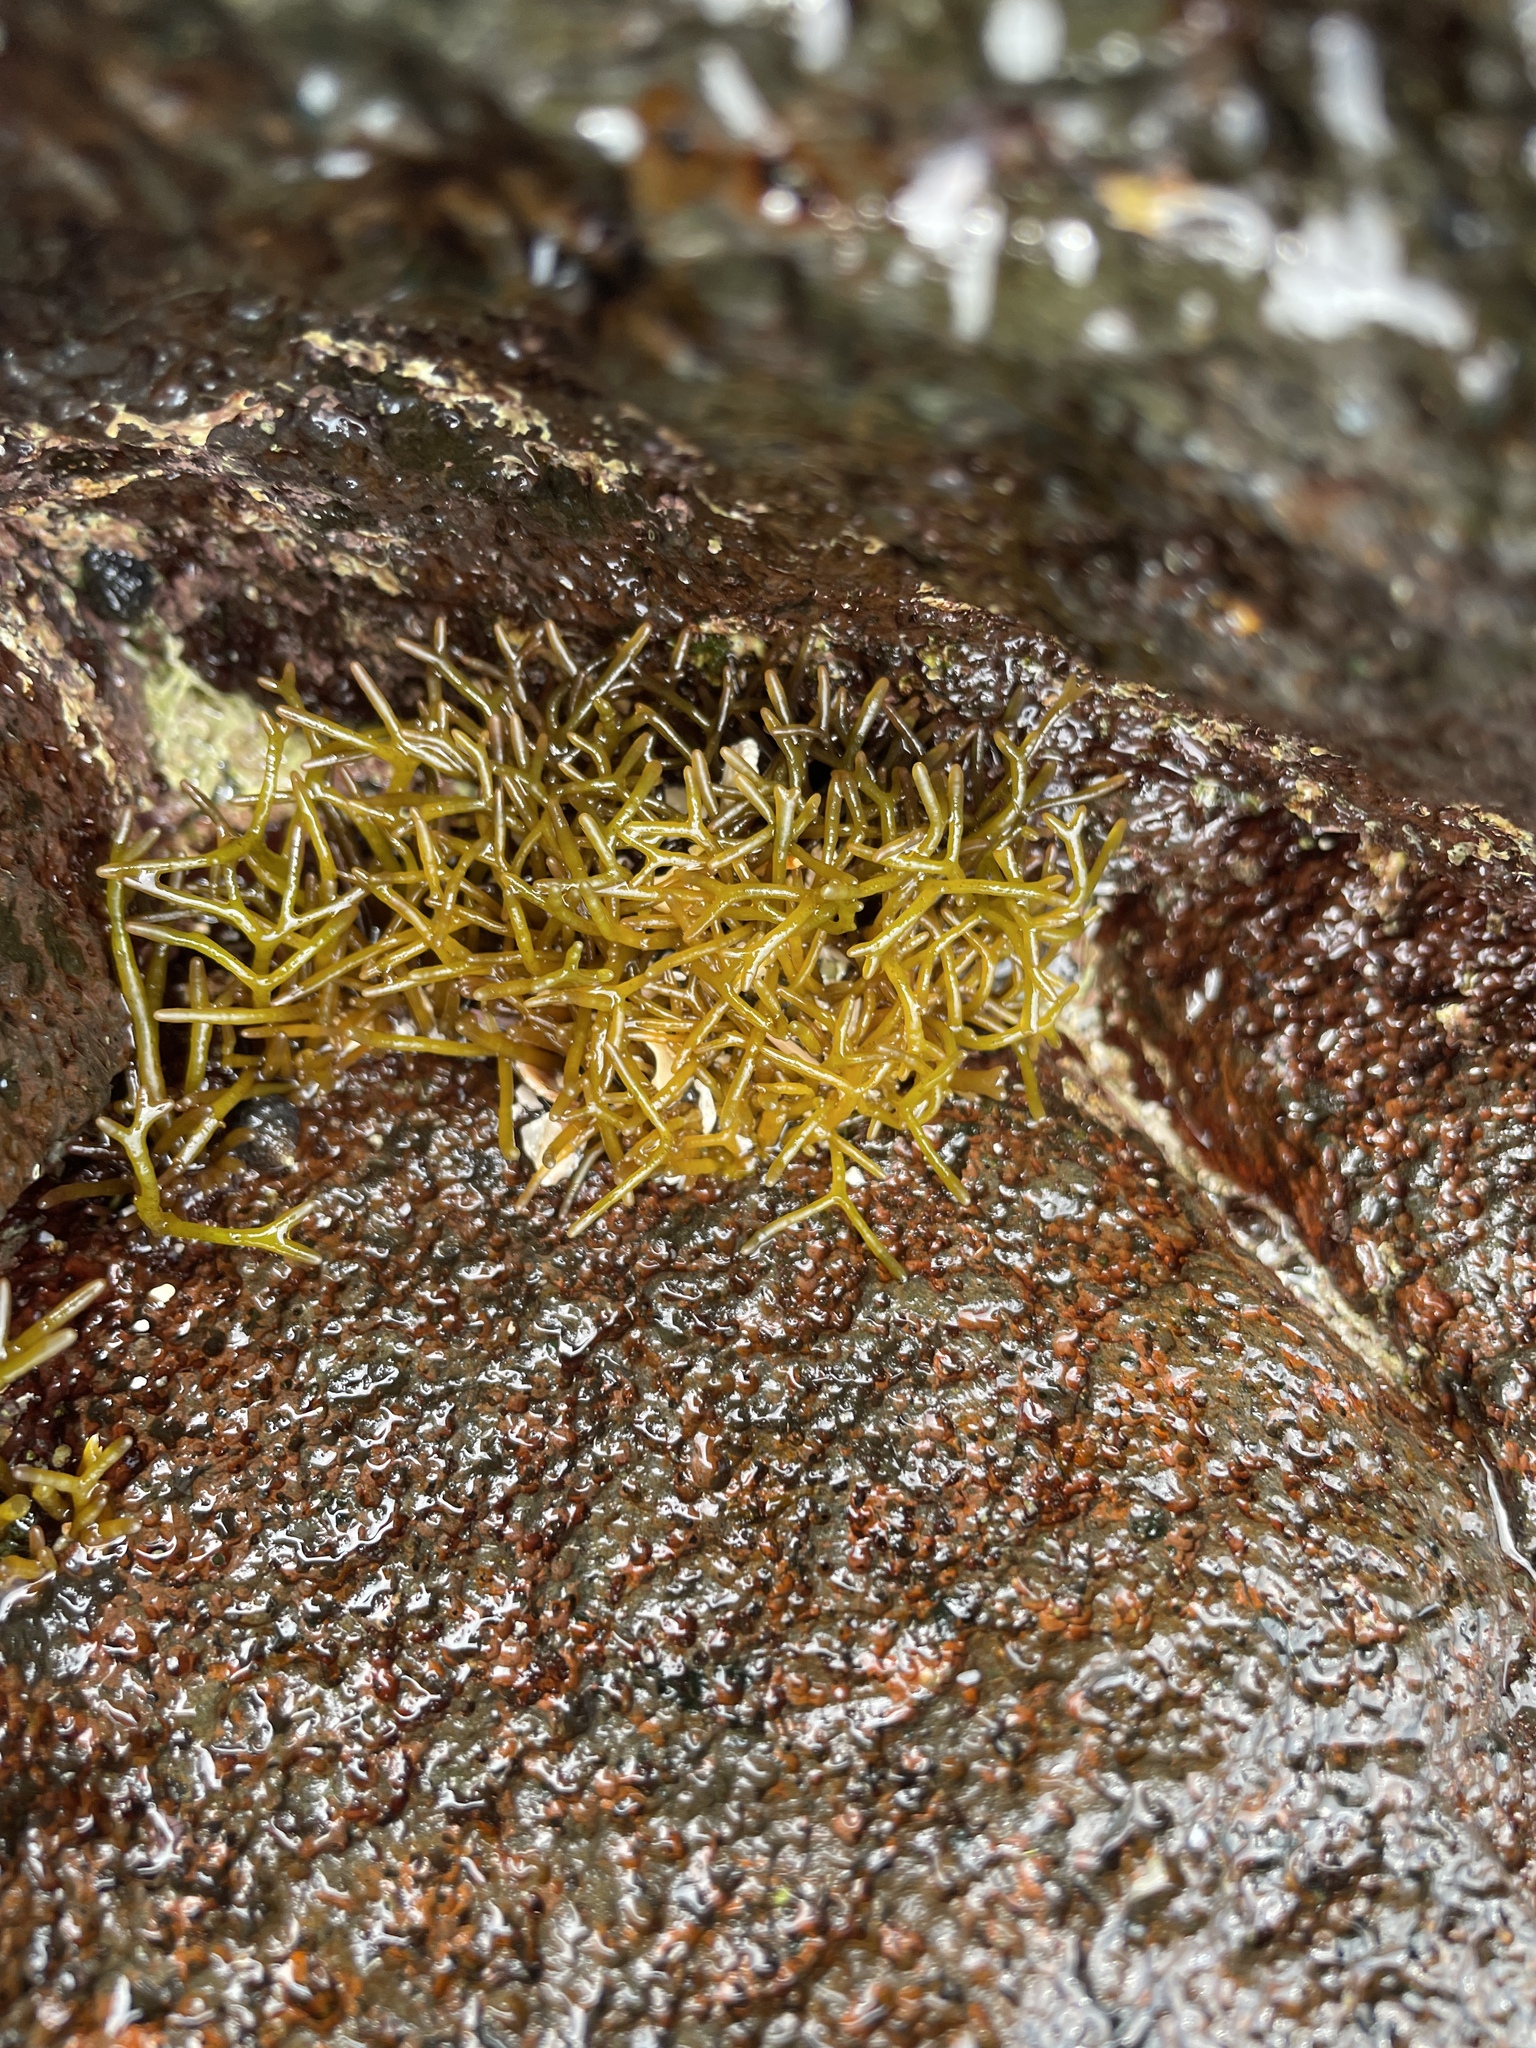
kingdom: Plantae
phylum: Rhodophyta
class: Florideophyceae
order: Gigartinales
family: Phyllophoraceae
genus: Gymnogongrus
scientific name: Gymnogongrus durvillei
